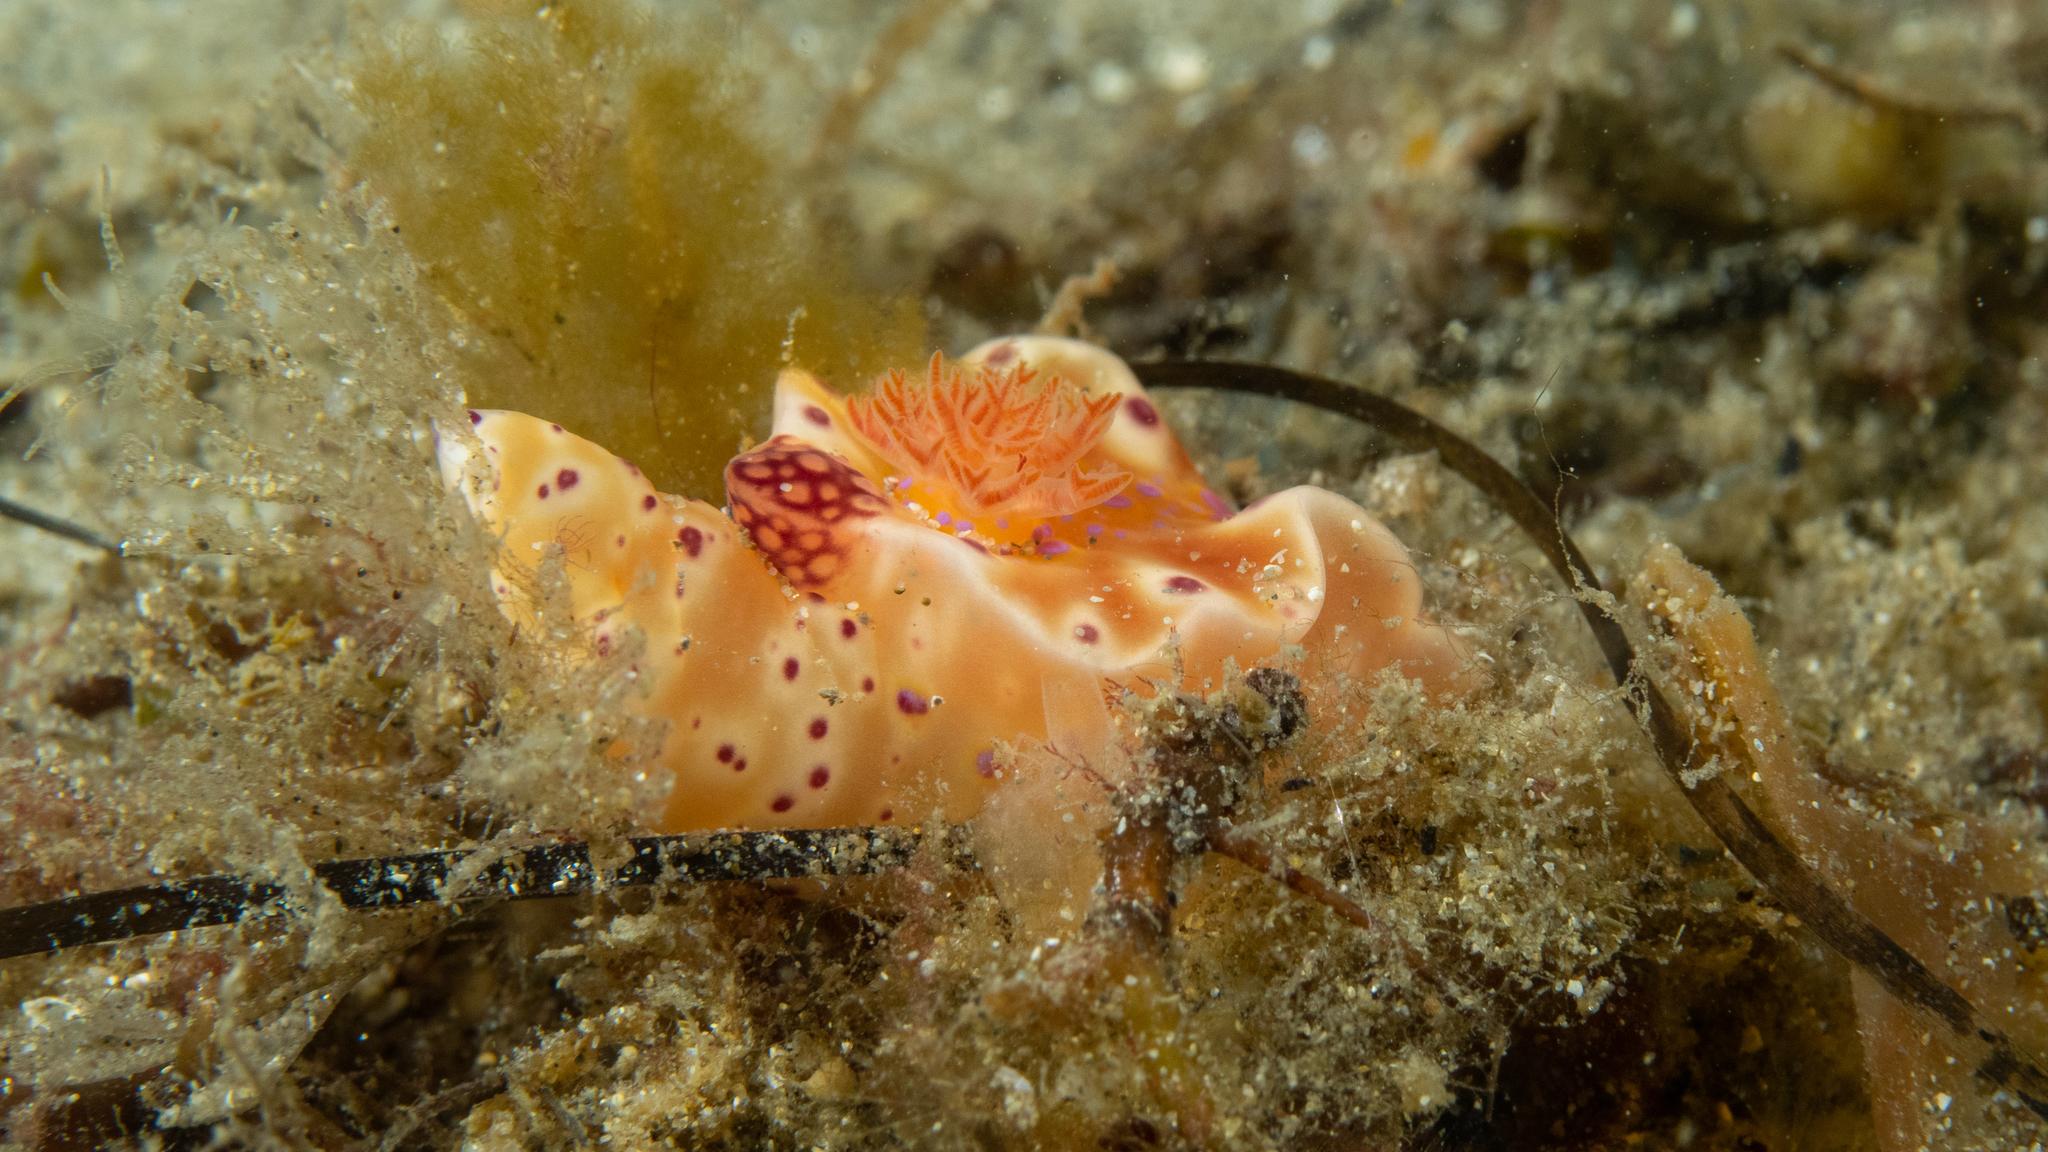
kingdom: Animalia
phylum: Mollusca
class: Gastropoda
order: Nudibranchia
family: Chromodorididae
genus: Ceratosoma
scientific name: Ceratosoma brevicaudatum
